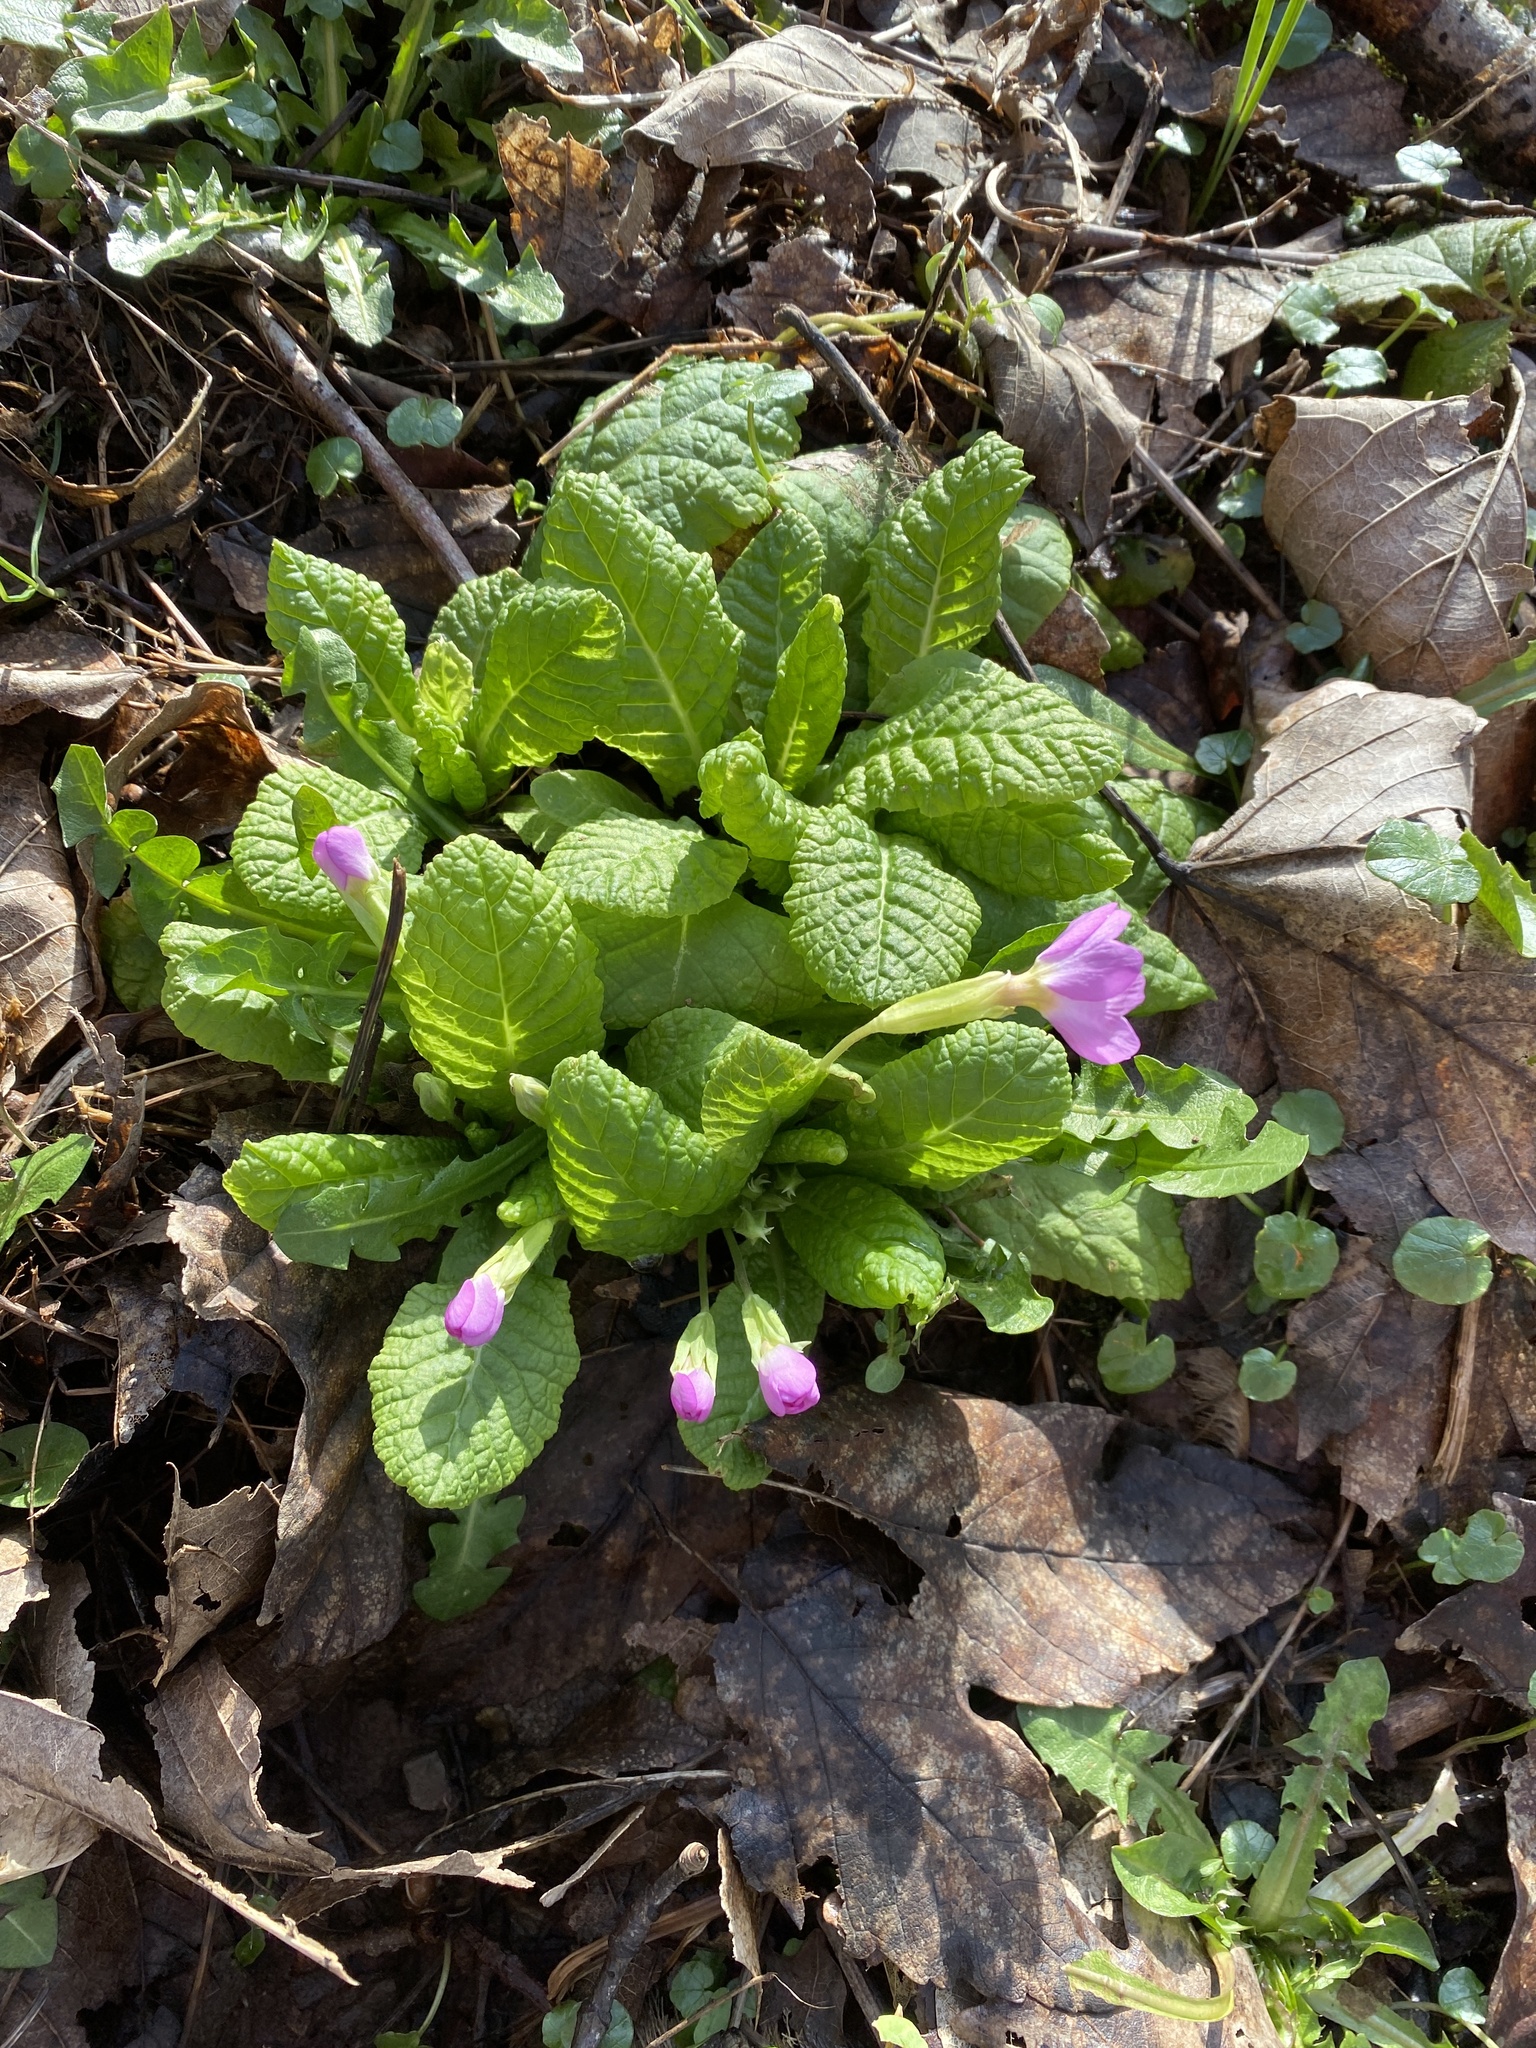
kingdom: Plantae
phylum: Tracheophyta
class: Magnoliopsida
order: Ericales
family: Primulaceae
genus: Primula
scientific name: Primula vulgaris
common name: Primrose
